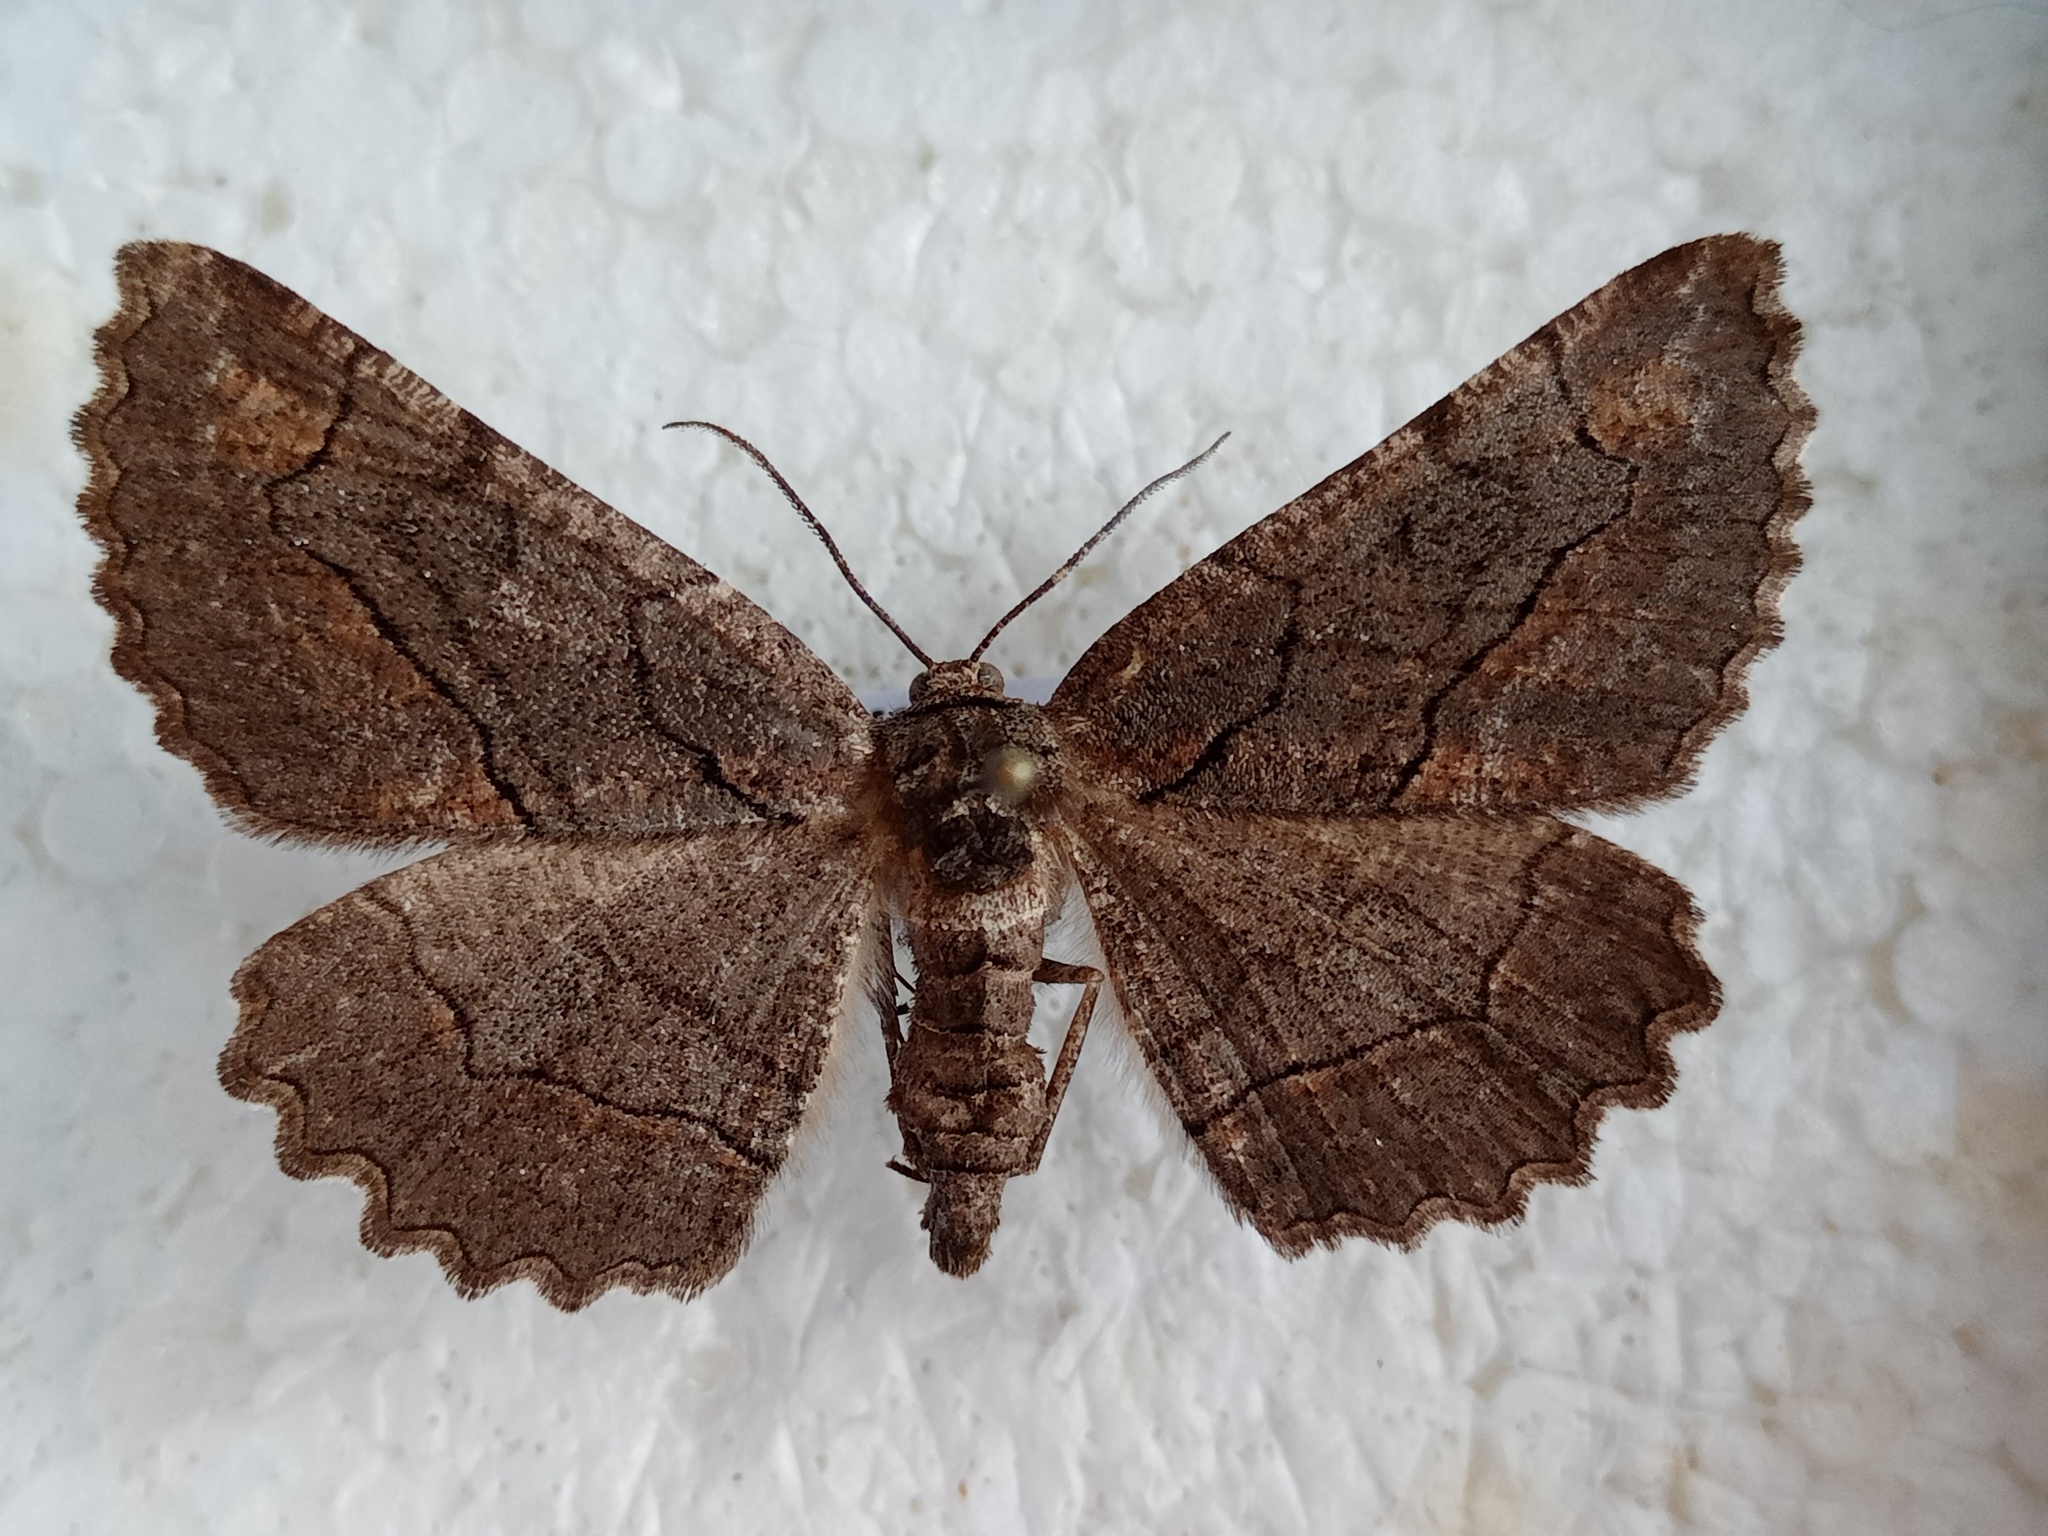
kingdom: Animalia
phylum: Arthropoda
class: Insecta
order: Lepidoptera
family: Geometridae
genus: Nychiodes
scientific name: Nychiodes dalmatina
